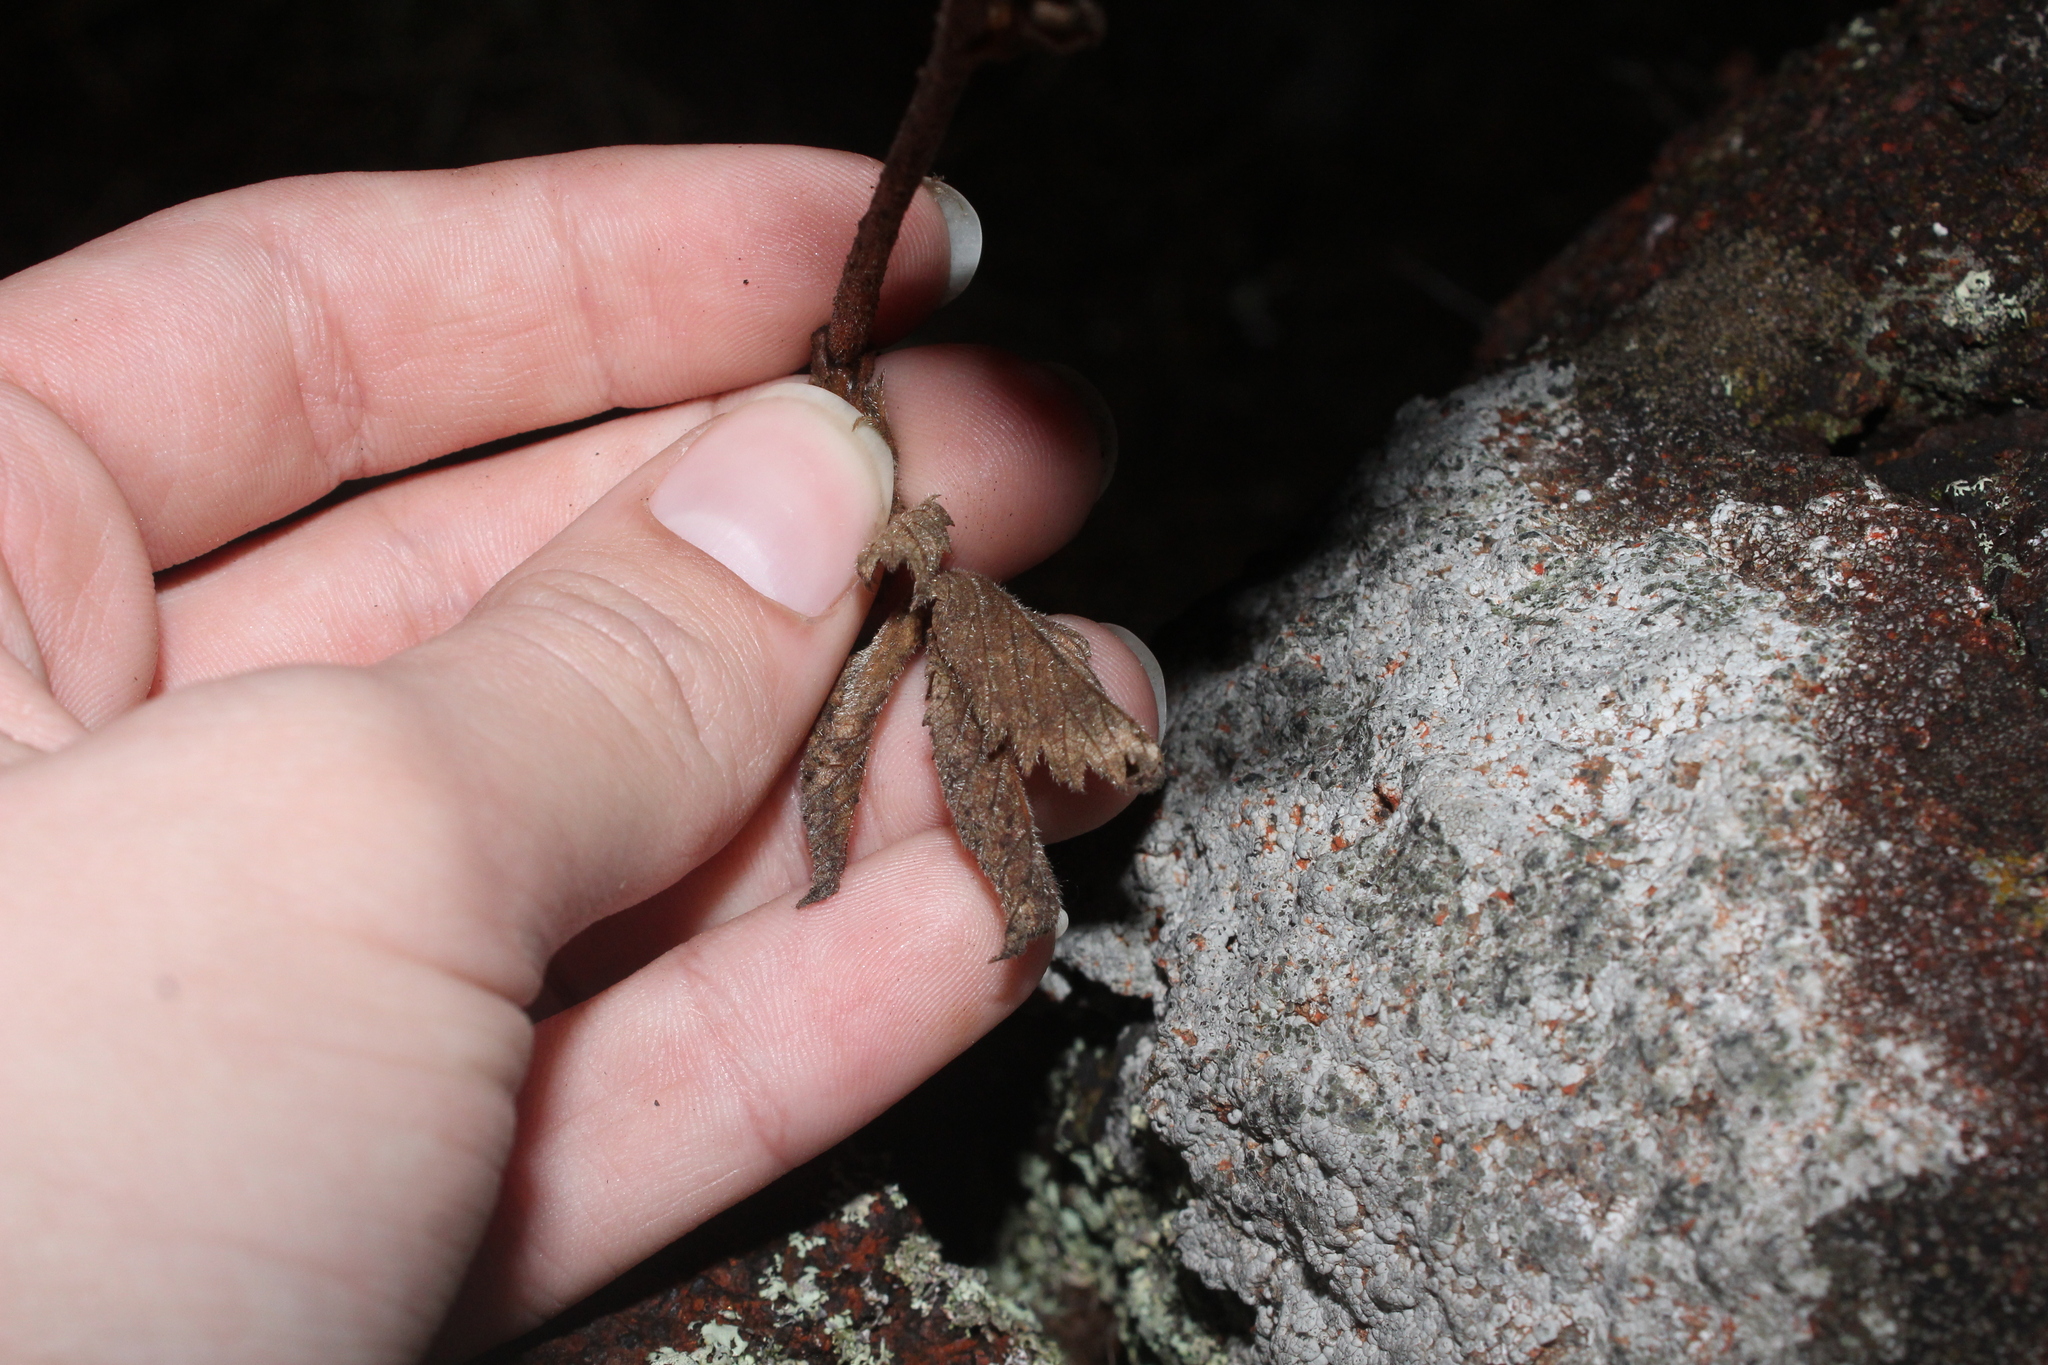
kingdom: Plantae
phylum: Tracheophyta
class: Magnoliopsida
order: Rosales
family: Rosaceae
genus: Drymocallis
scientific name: Drymocallis arguta
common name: Tall cinquefoil
